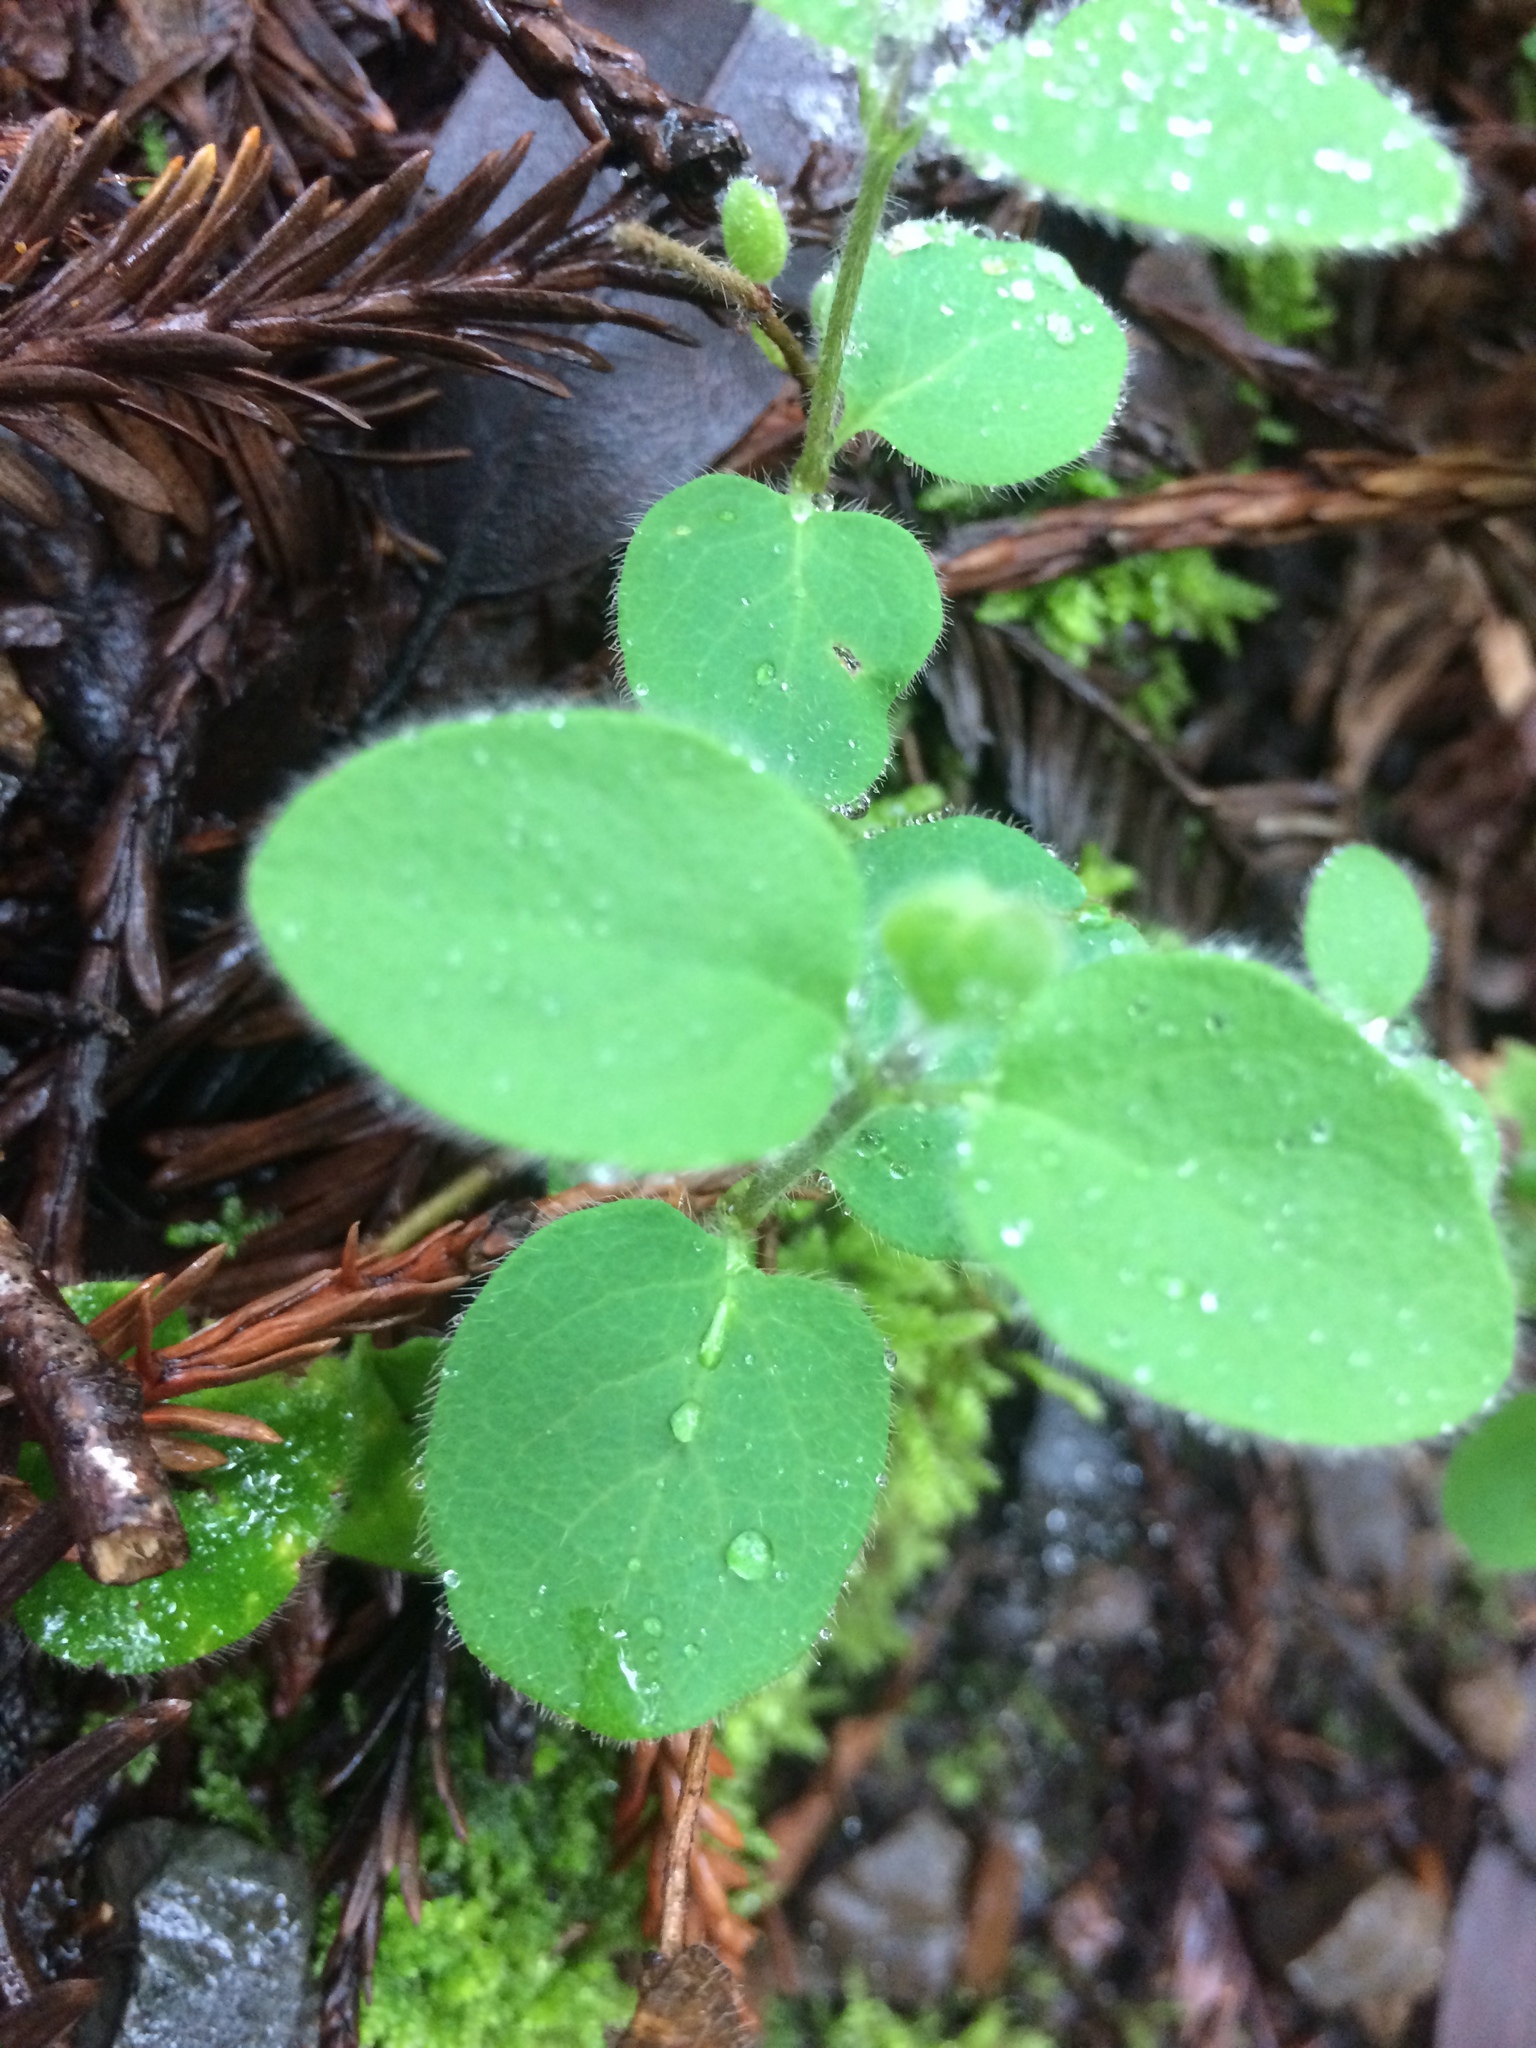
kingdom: Plantae
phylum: Tracheophyta
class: Magnoliopsida
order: Dipsacales
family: Caprifoliaceae
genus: Lonicera
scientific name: Lonicera hispidula
